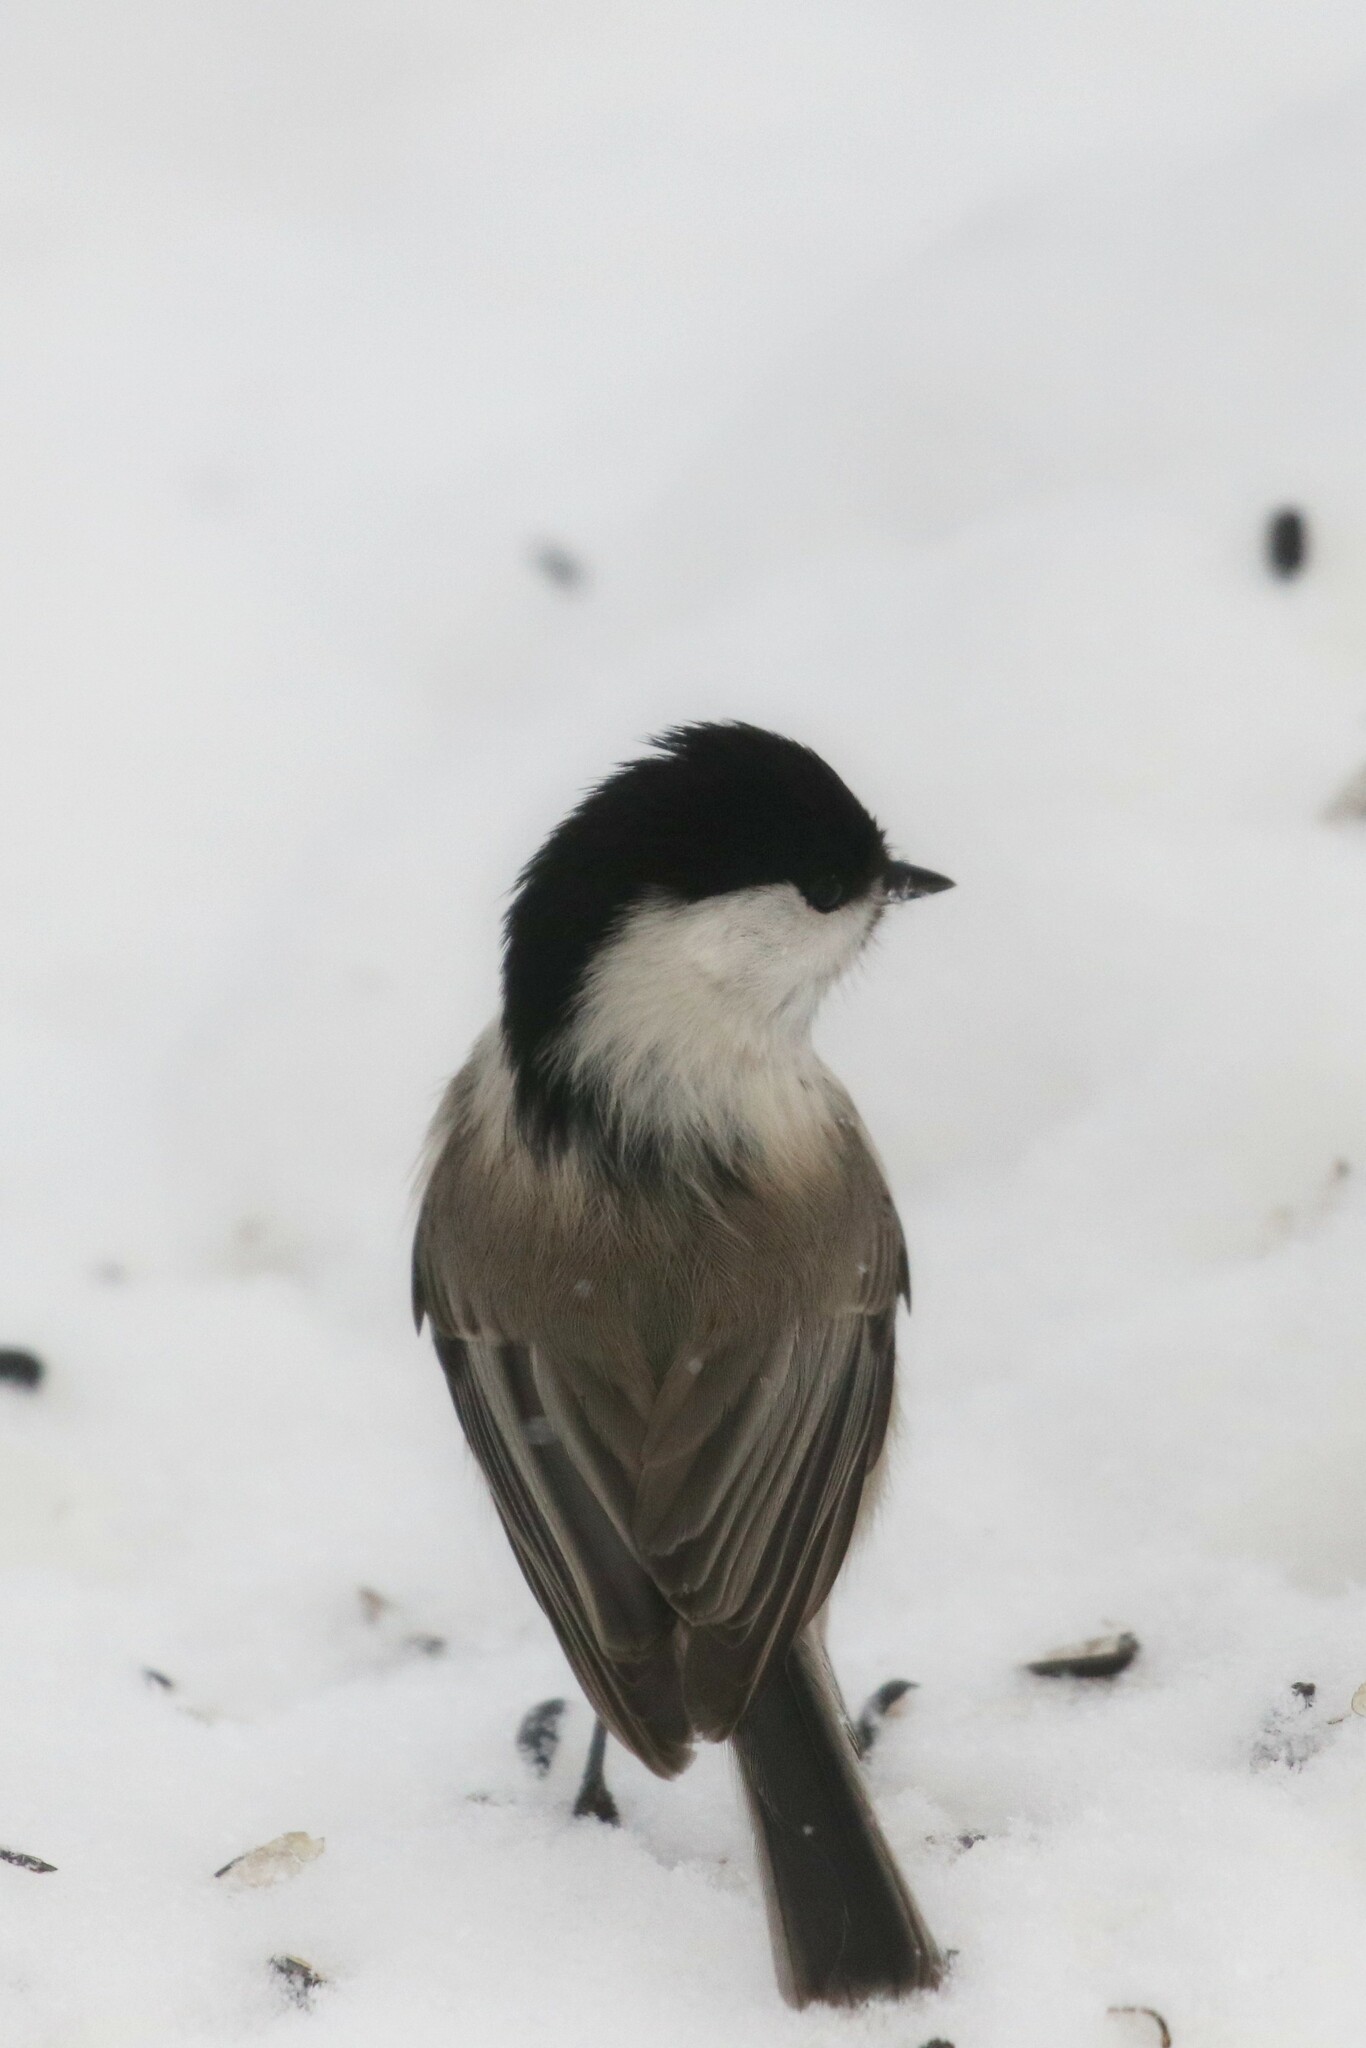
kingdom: Animalia
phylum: Chordata
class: Aves
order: Passeriformes
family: Paridae
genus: Poecile
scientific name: Poecile montanus
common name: Willow tit
